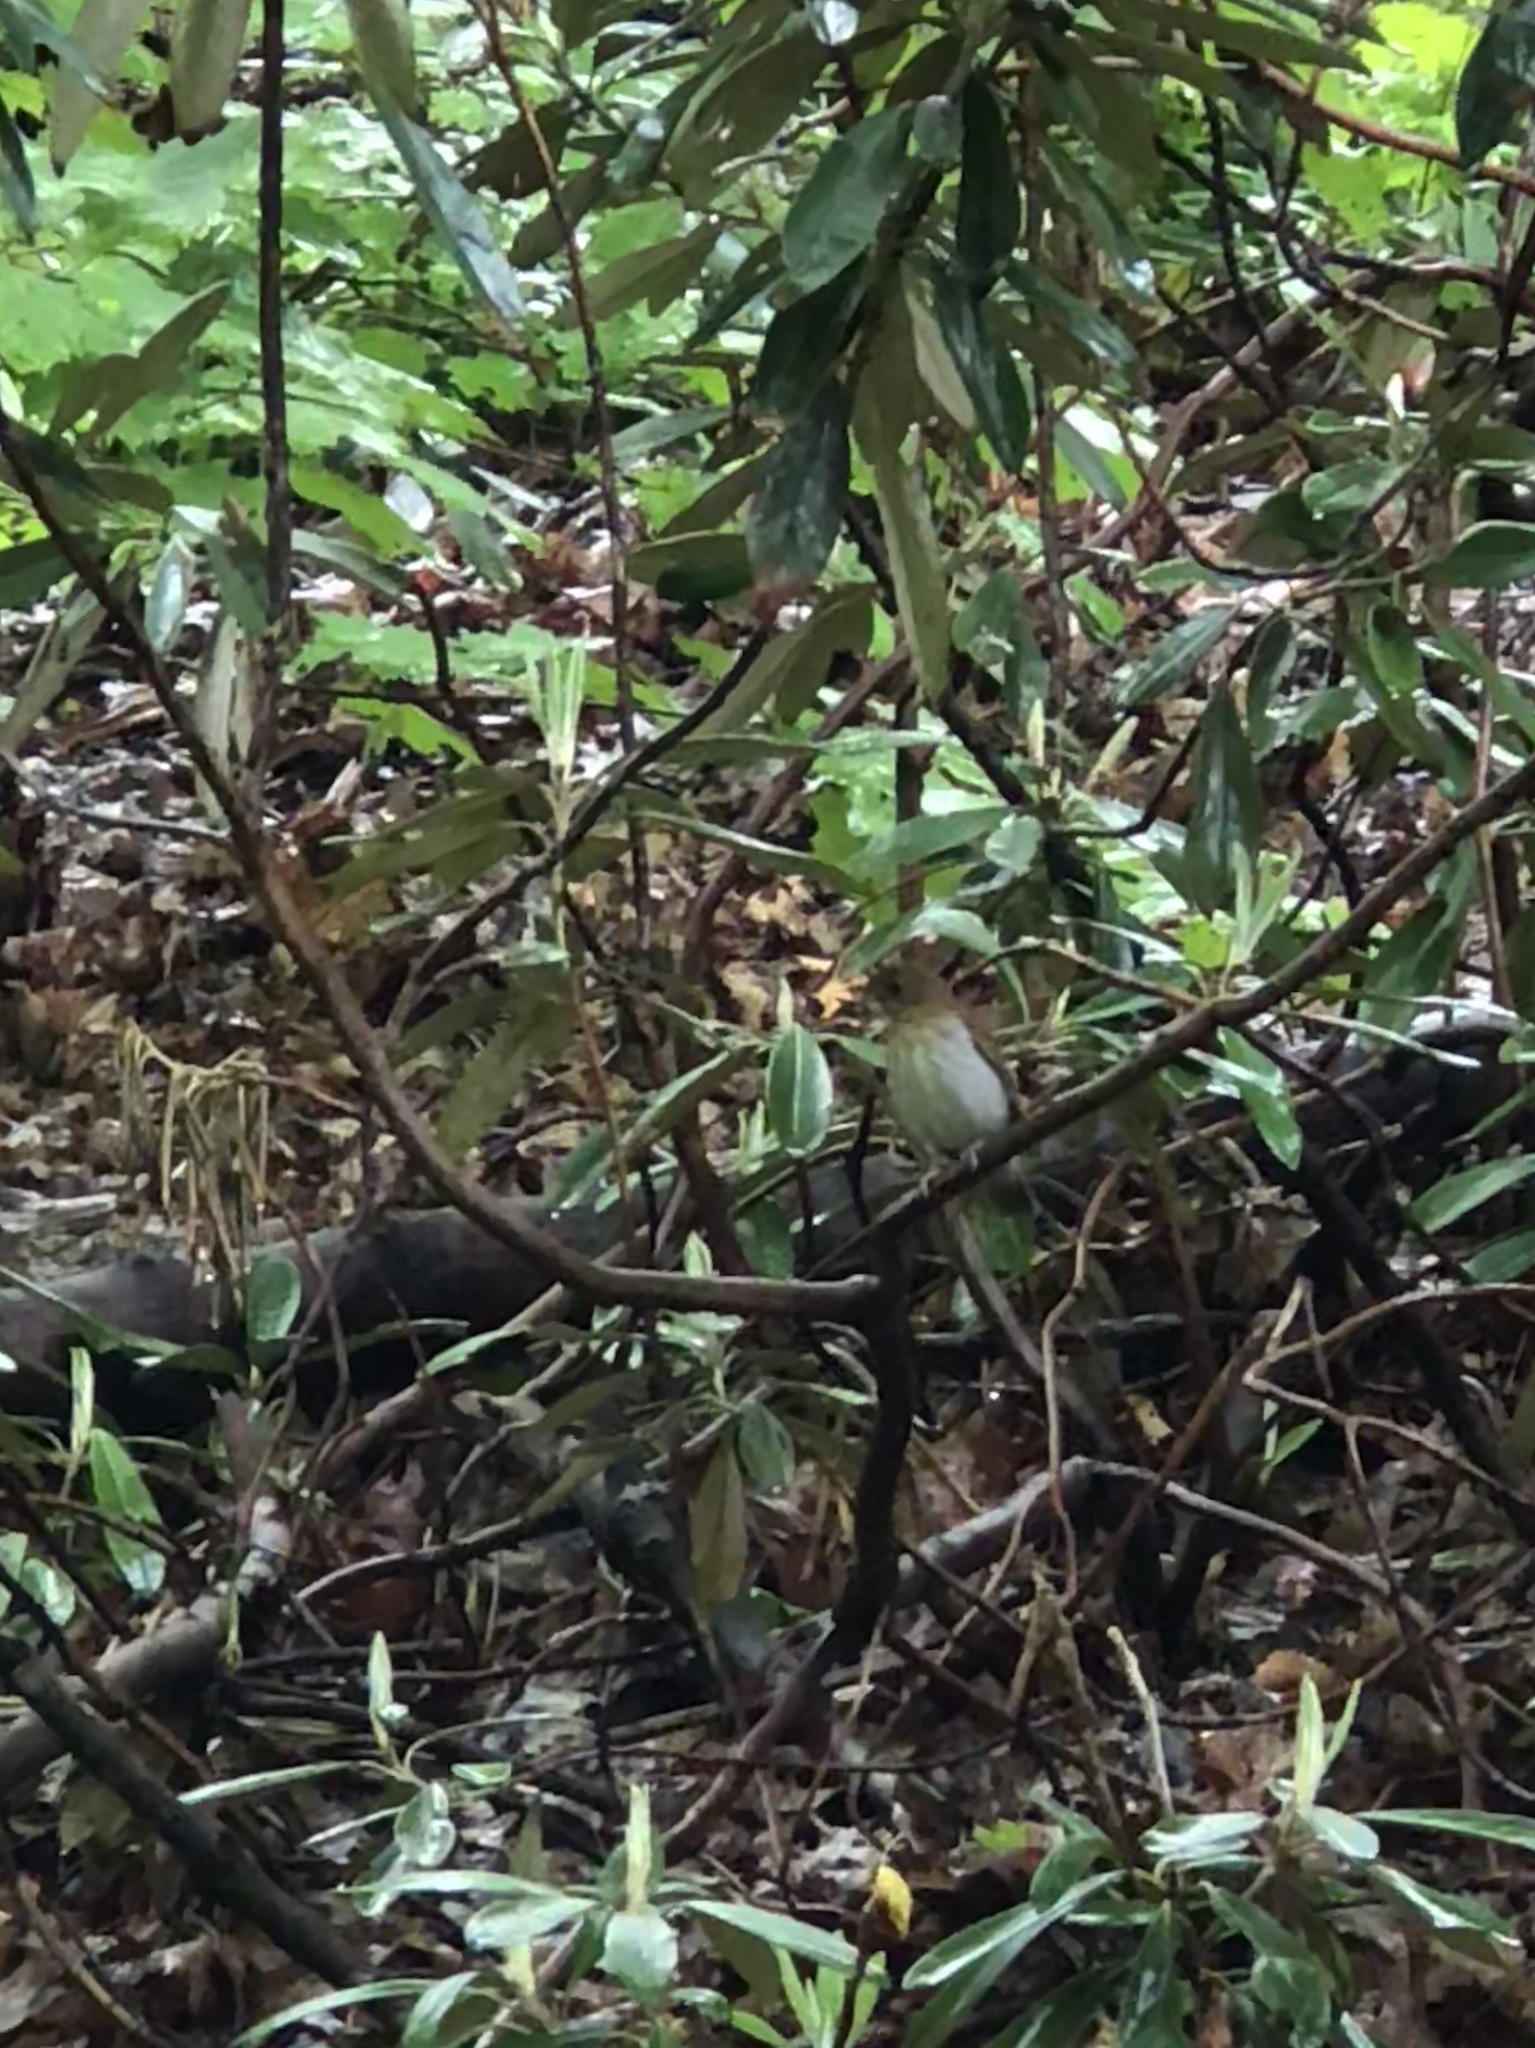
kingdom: Animalia
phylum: Chordata
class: Aves
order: Passeriformes
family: Turdidae
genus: Catharus
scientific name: Catharus fuscescens
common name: Veery
